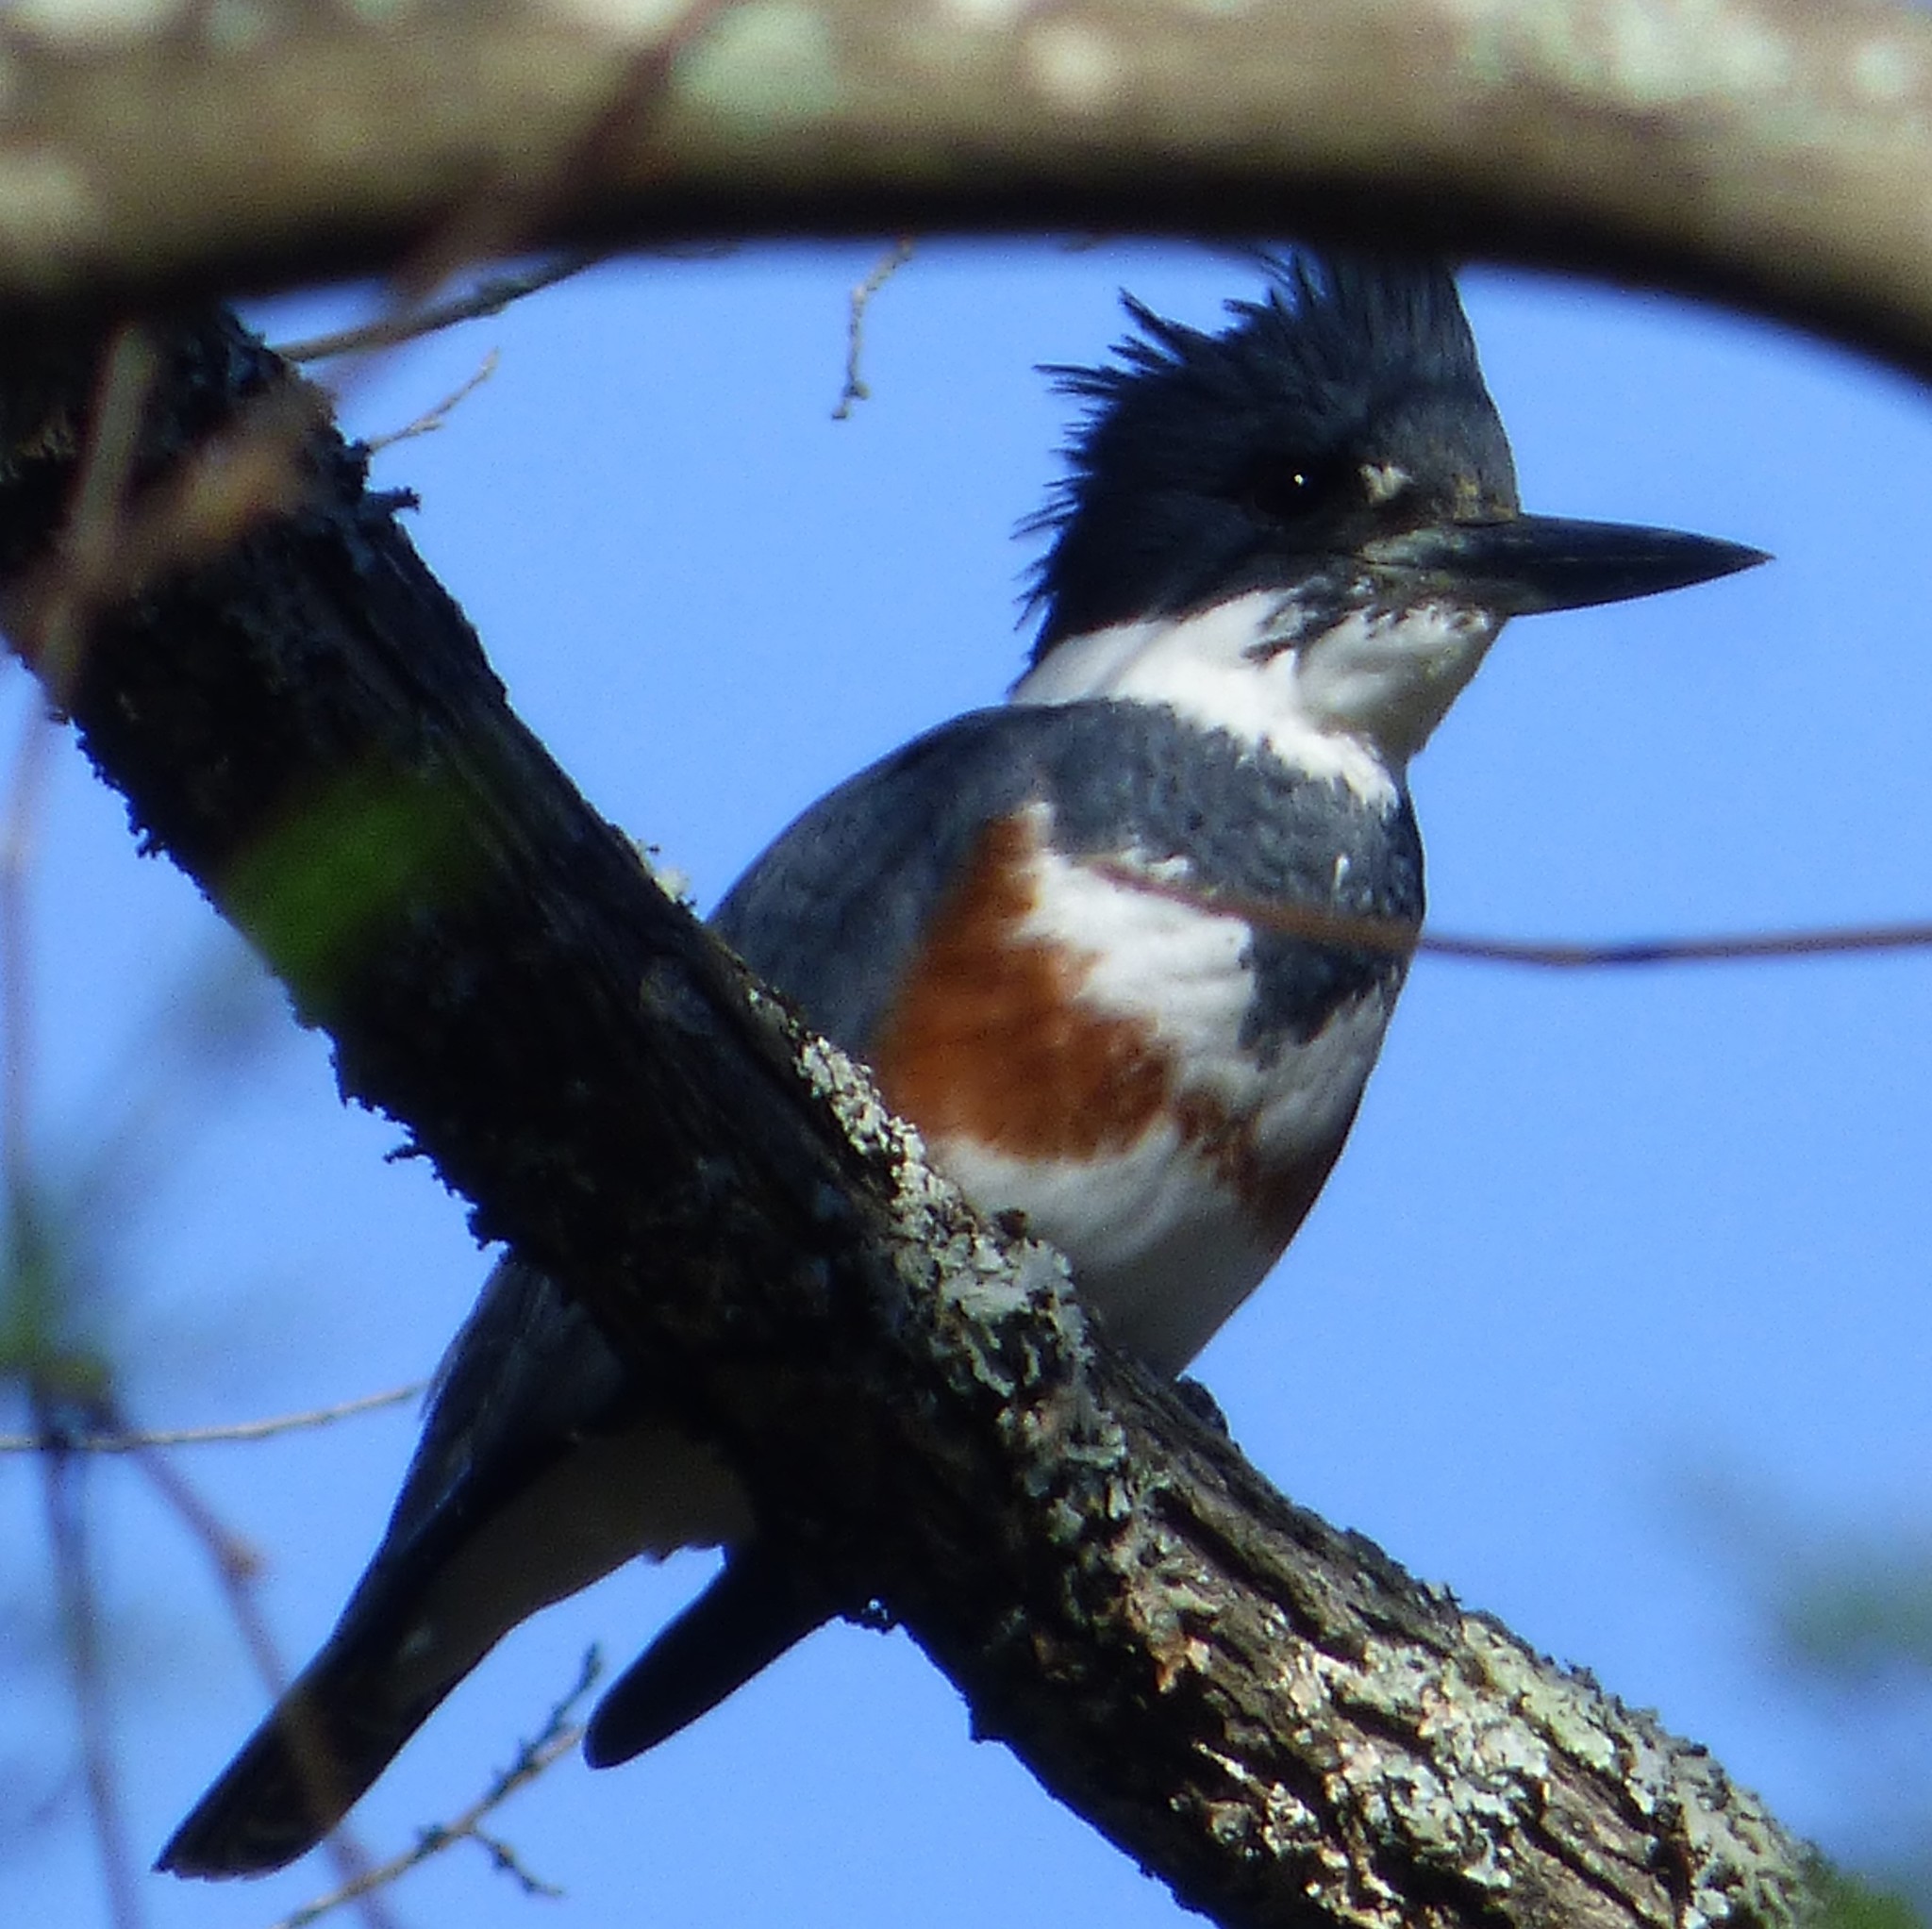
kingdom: Animalia
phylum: Chordata
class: Aves
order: Coraciiformes
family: Alcedinidae
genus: Megaceryle
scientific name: Megaceryle alcyon
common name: Belted kingfisher
